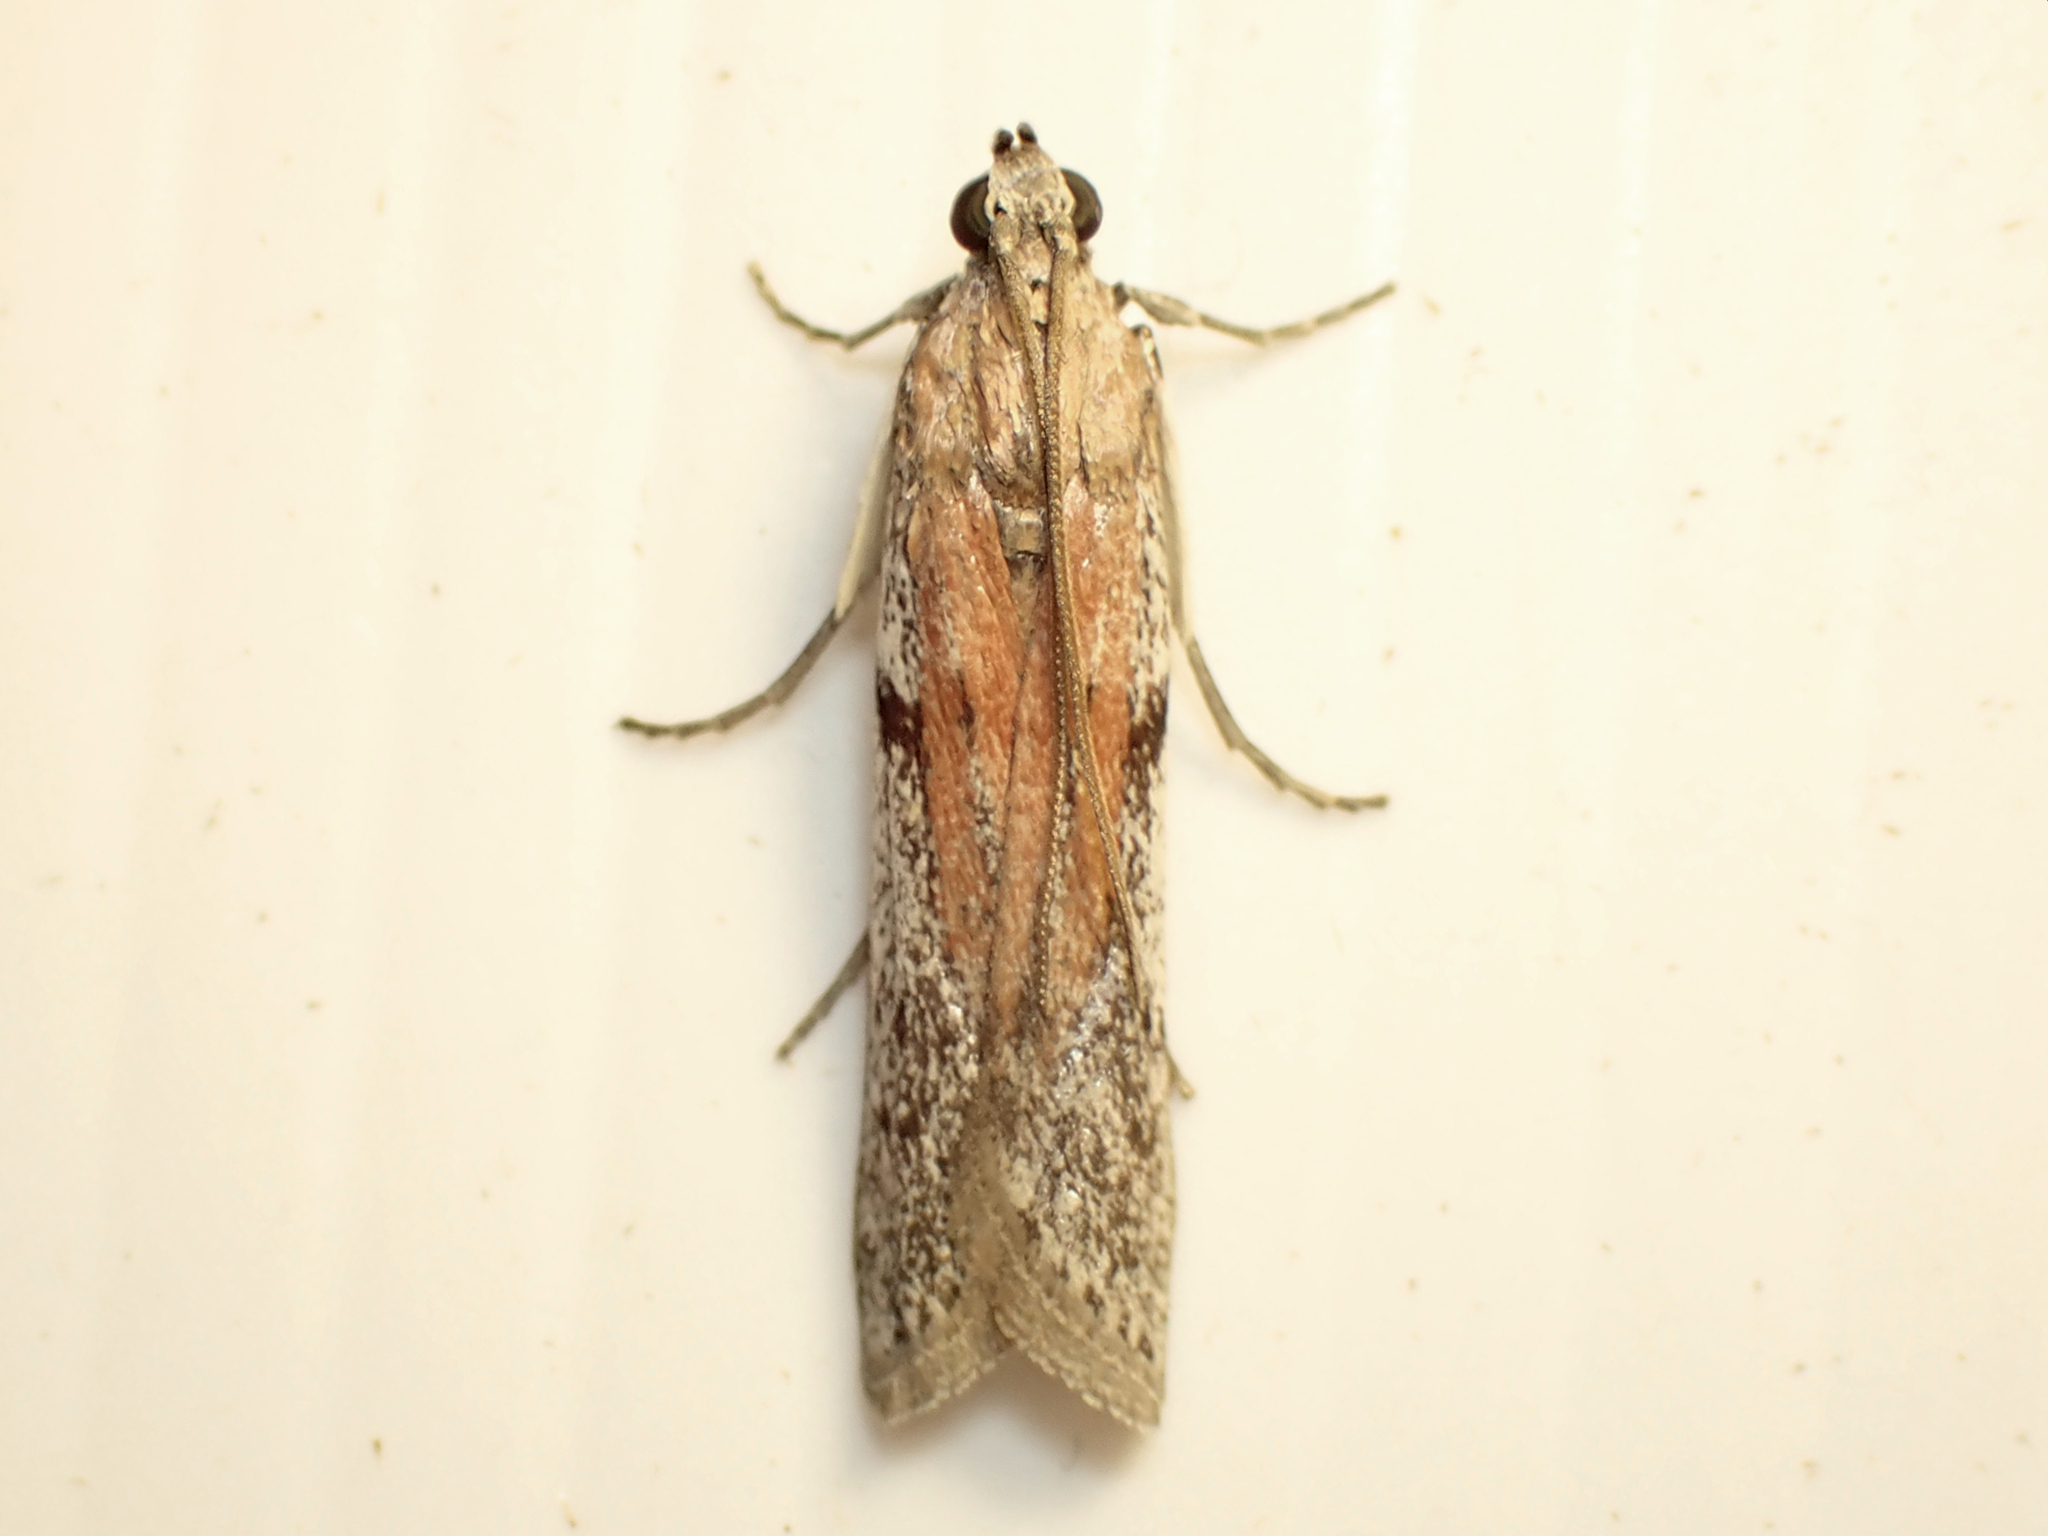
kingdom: Animalia
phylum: Arthropoda
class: Insecta
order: Lepidoptera
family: Pyralidae
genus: Patagoniodes
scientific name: Patagoniodes farinaria
